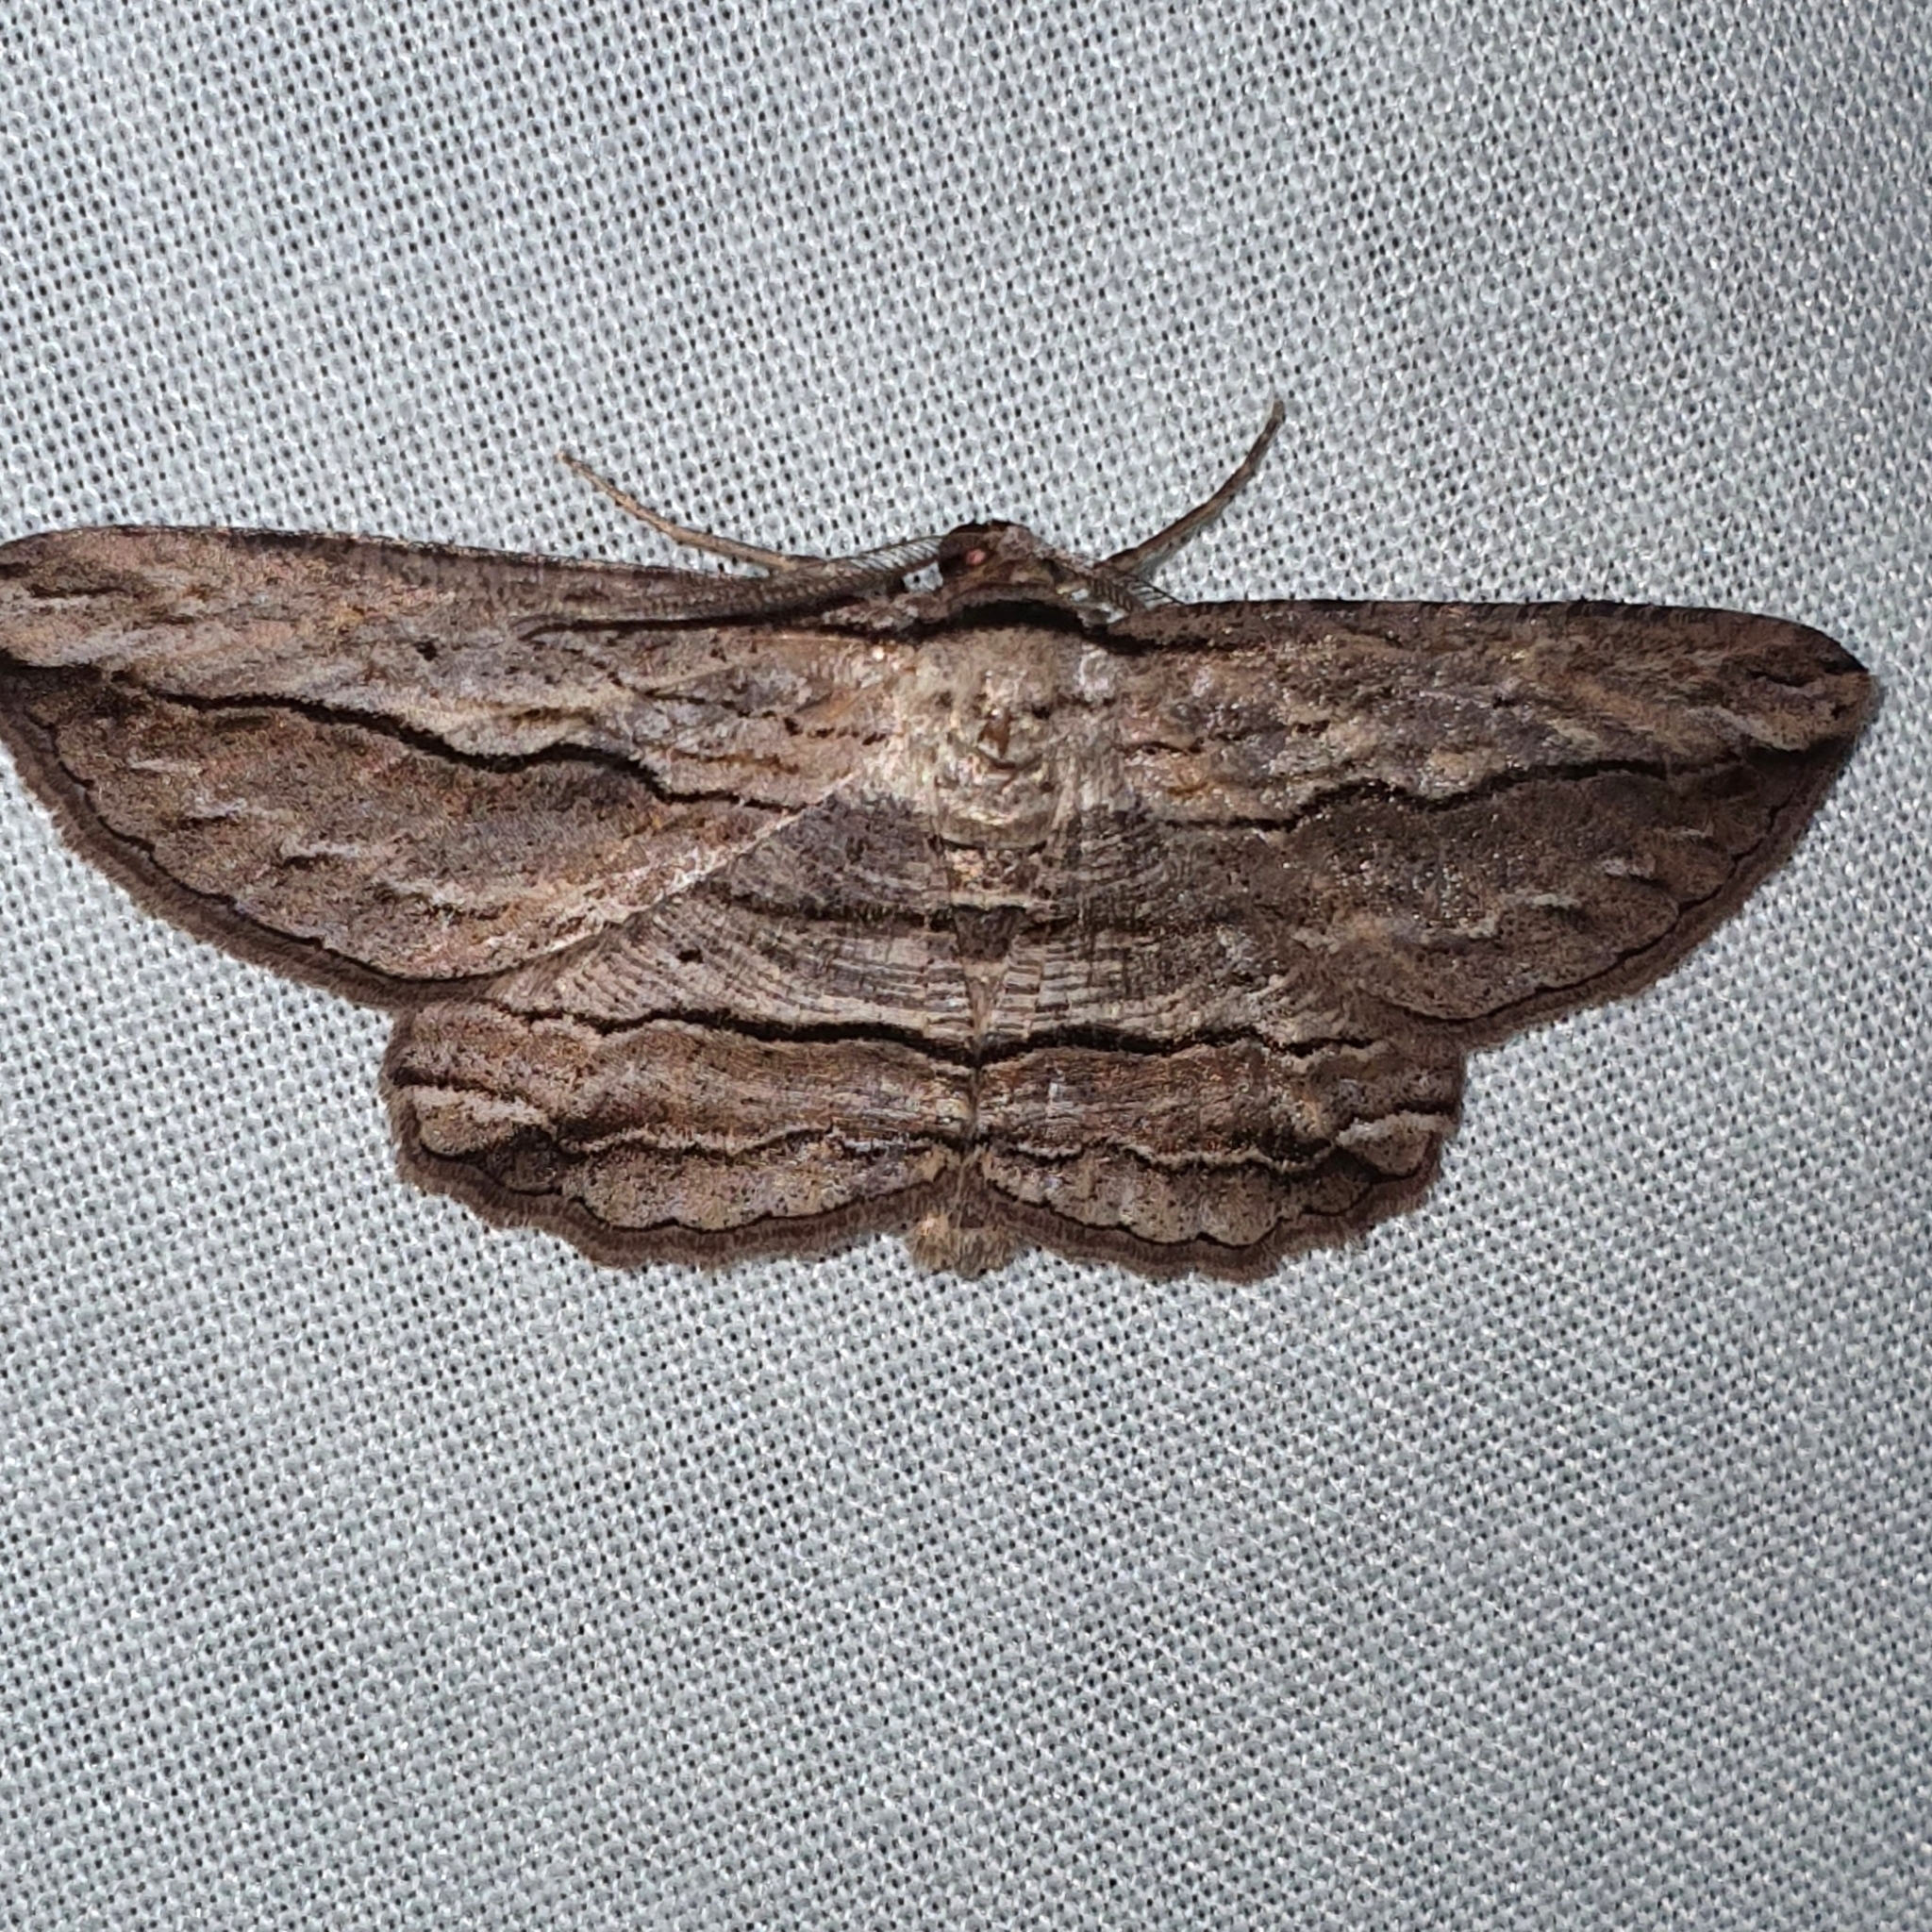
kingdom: Animalia
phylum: Arthropoda
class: Insecta
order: Lepidoptera
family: Geometridae
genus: Euphronarcha
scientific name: Euphronarcha luxaria
